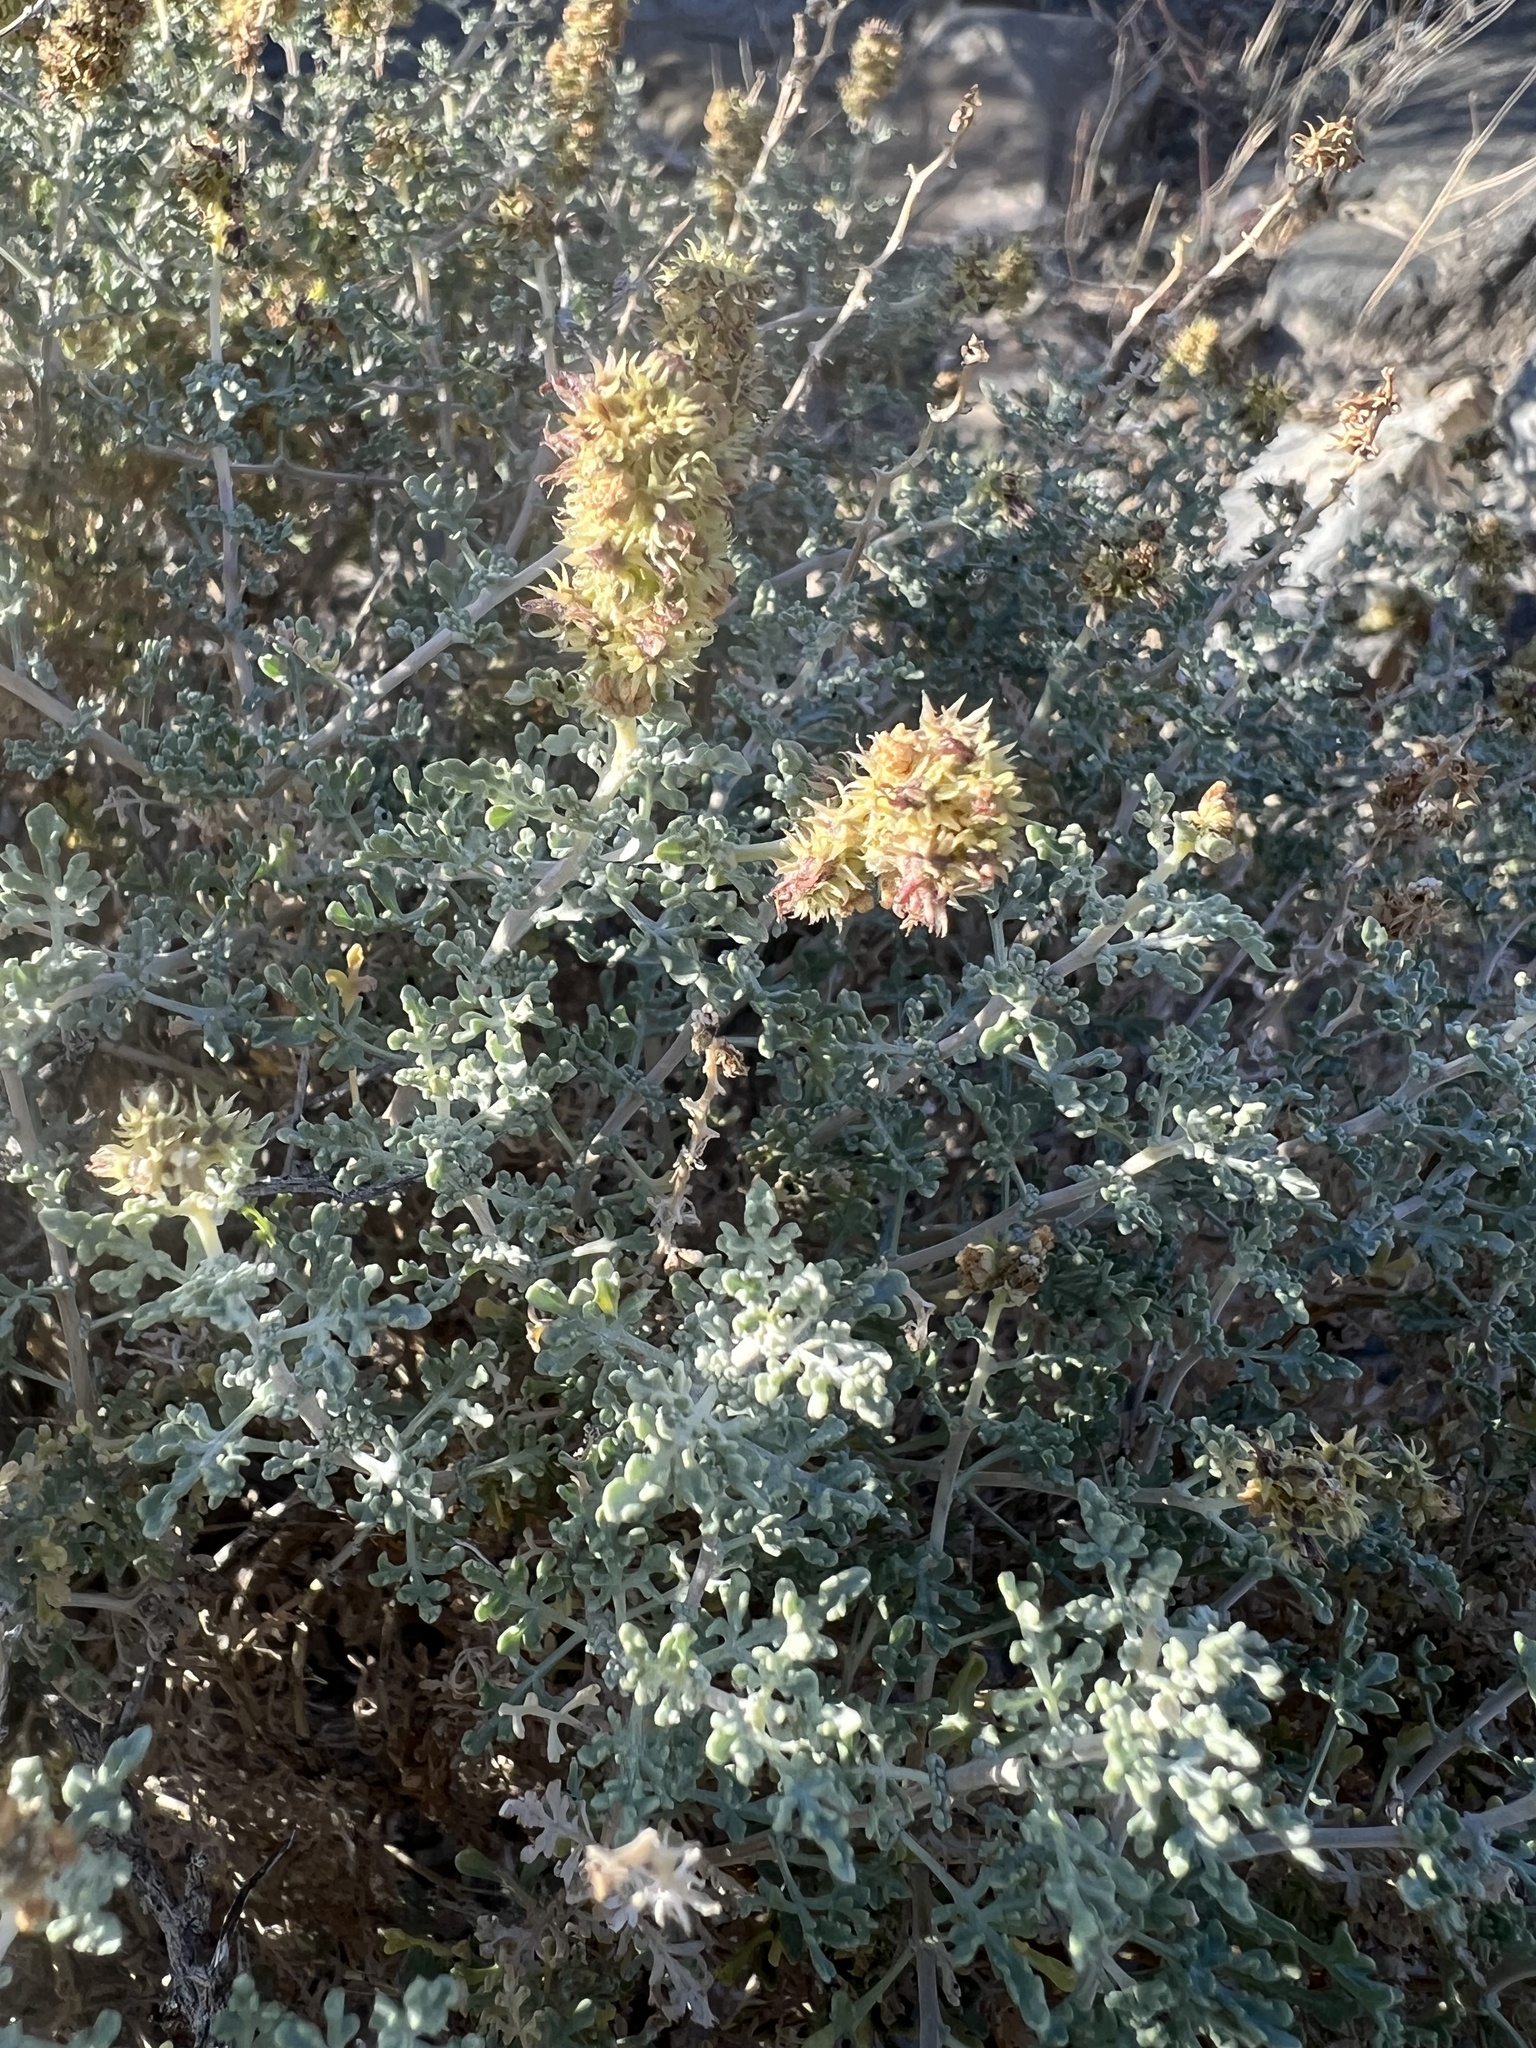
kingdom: Plantae
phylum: Tracheophyta
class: Magnoliopsida
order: Asterales
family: Asteraceae
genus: Ambrosia
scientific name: Ambrosia dumosa
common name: Bur-sage
